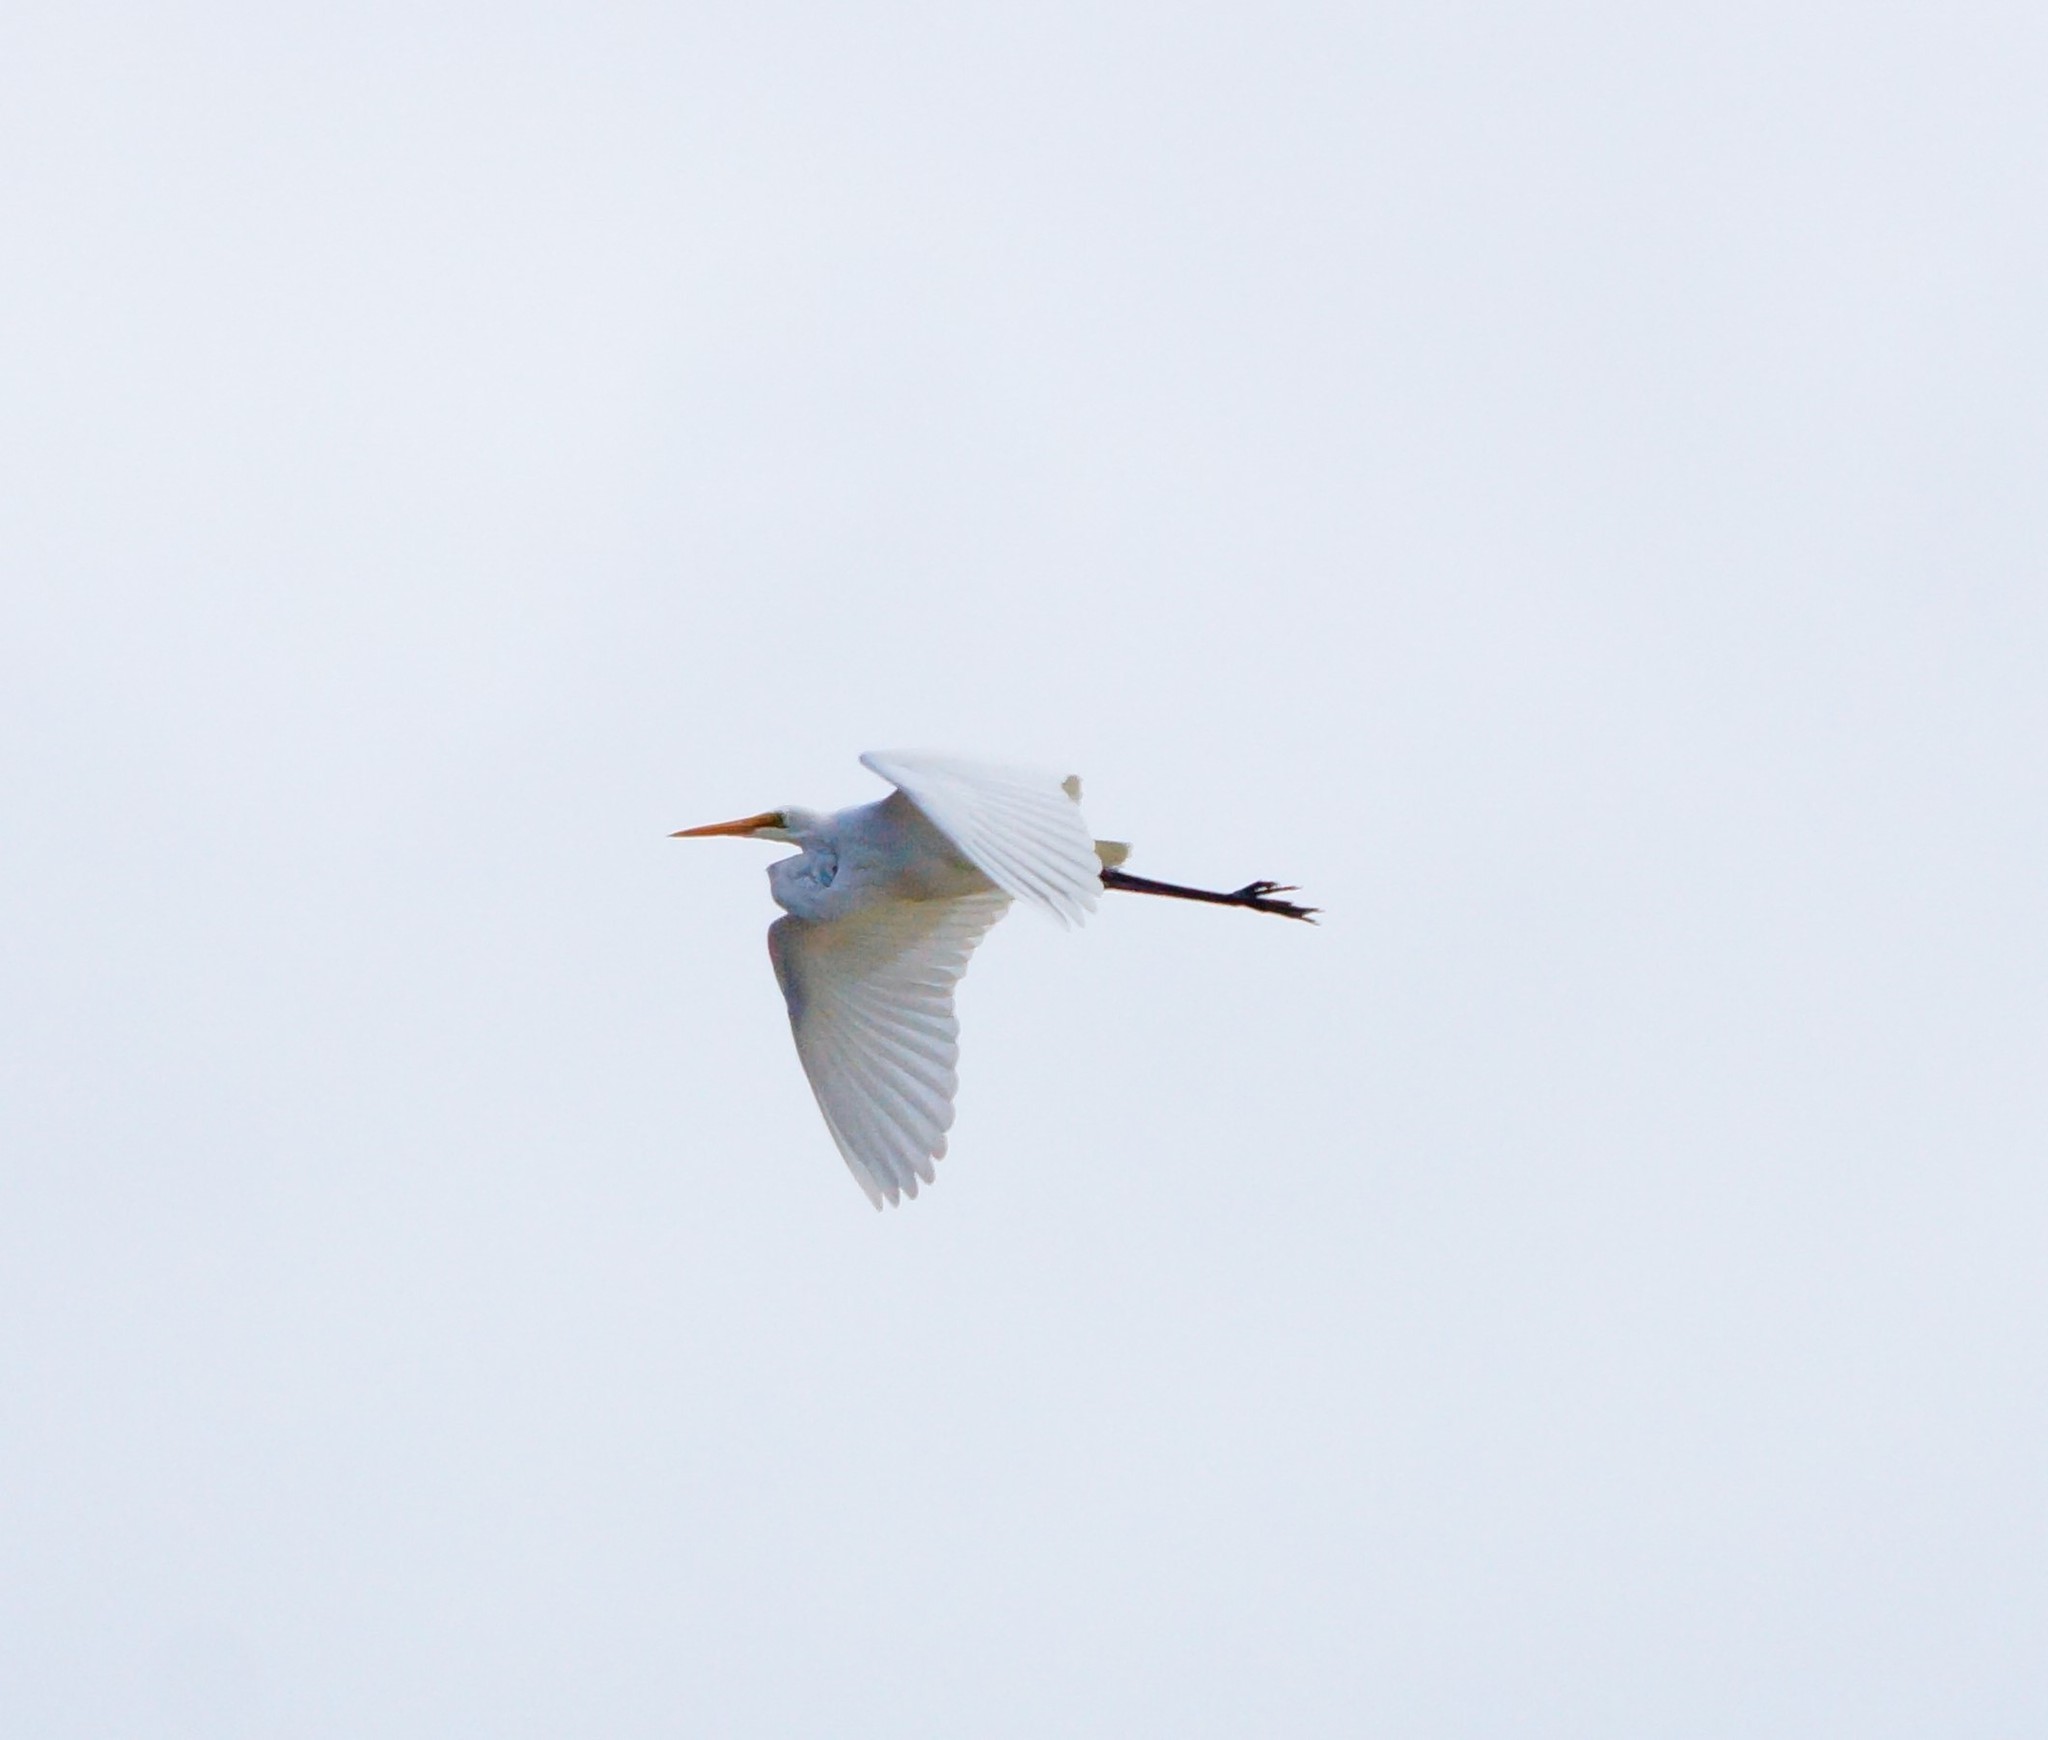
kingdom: Animalia
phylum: Chordata
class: Aves
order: Pelecaniformes
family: Ardeidae
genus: Ardea
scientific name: Ardea alba
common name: Great egret
